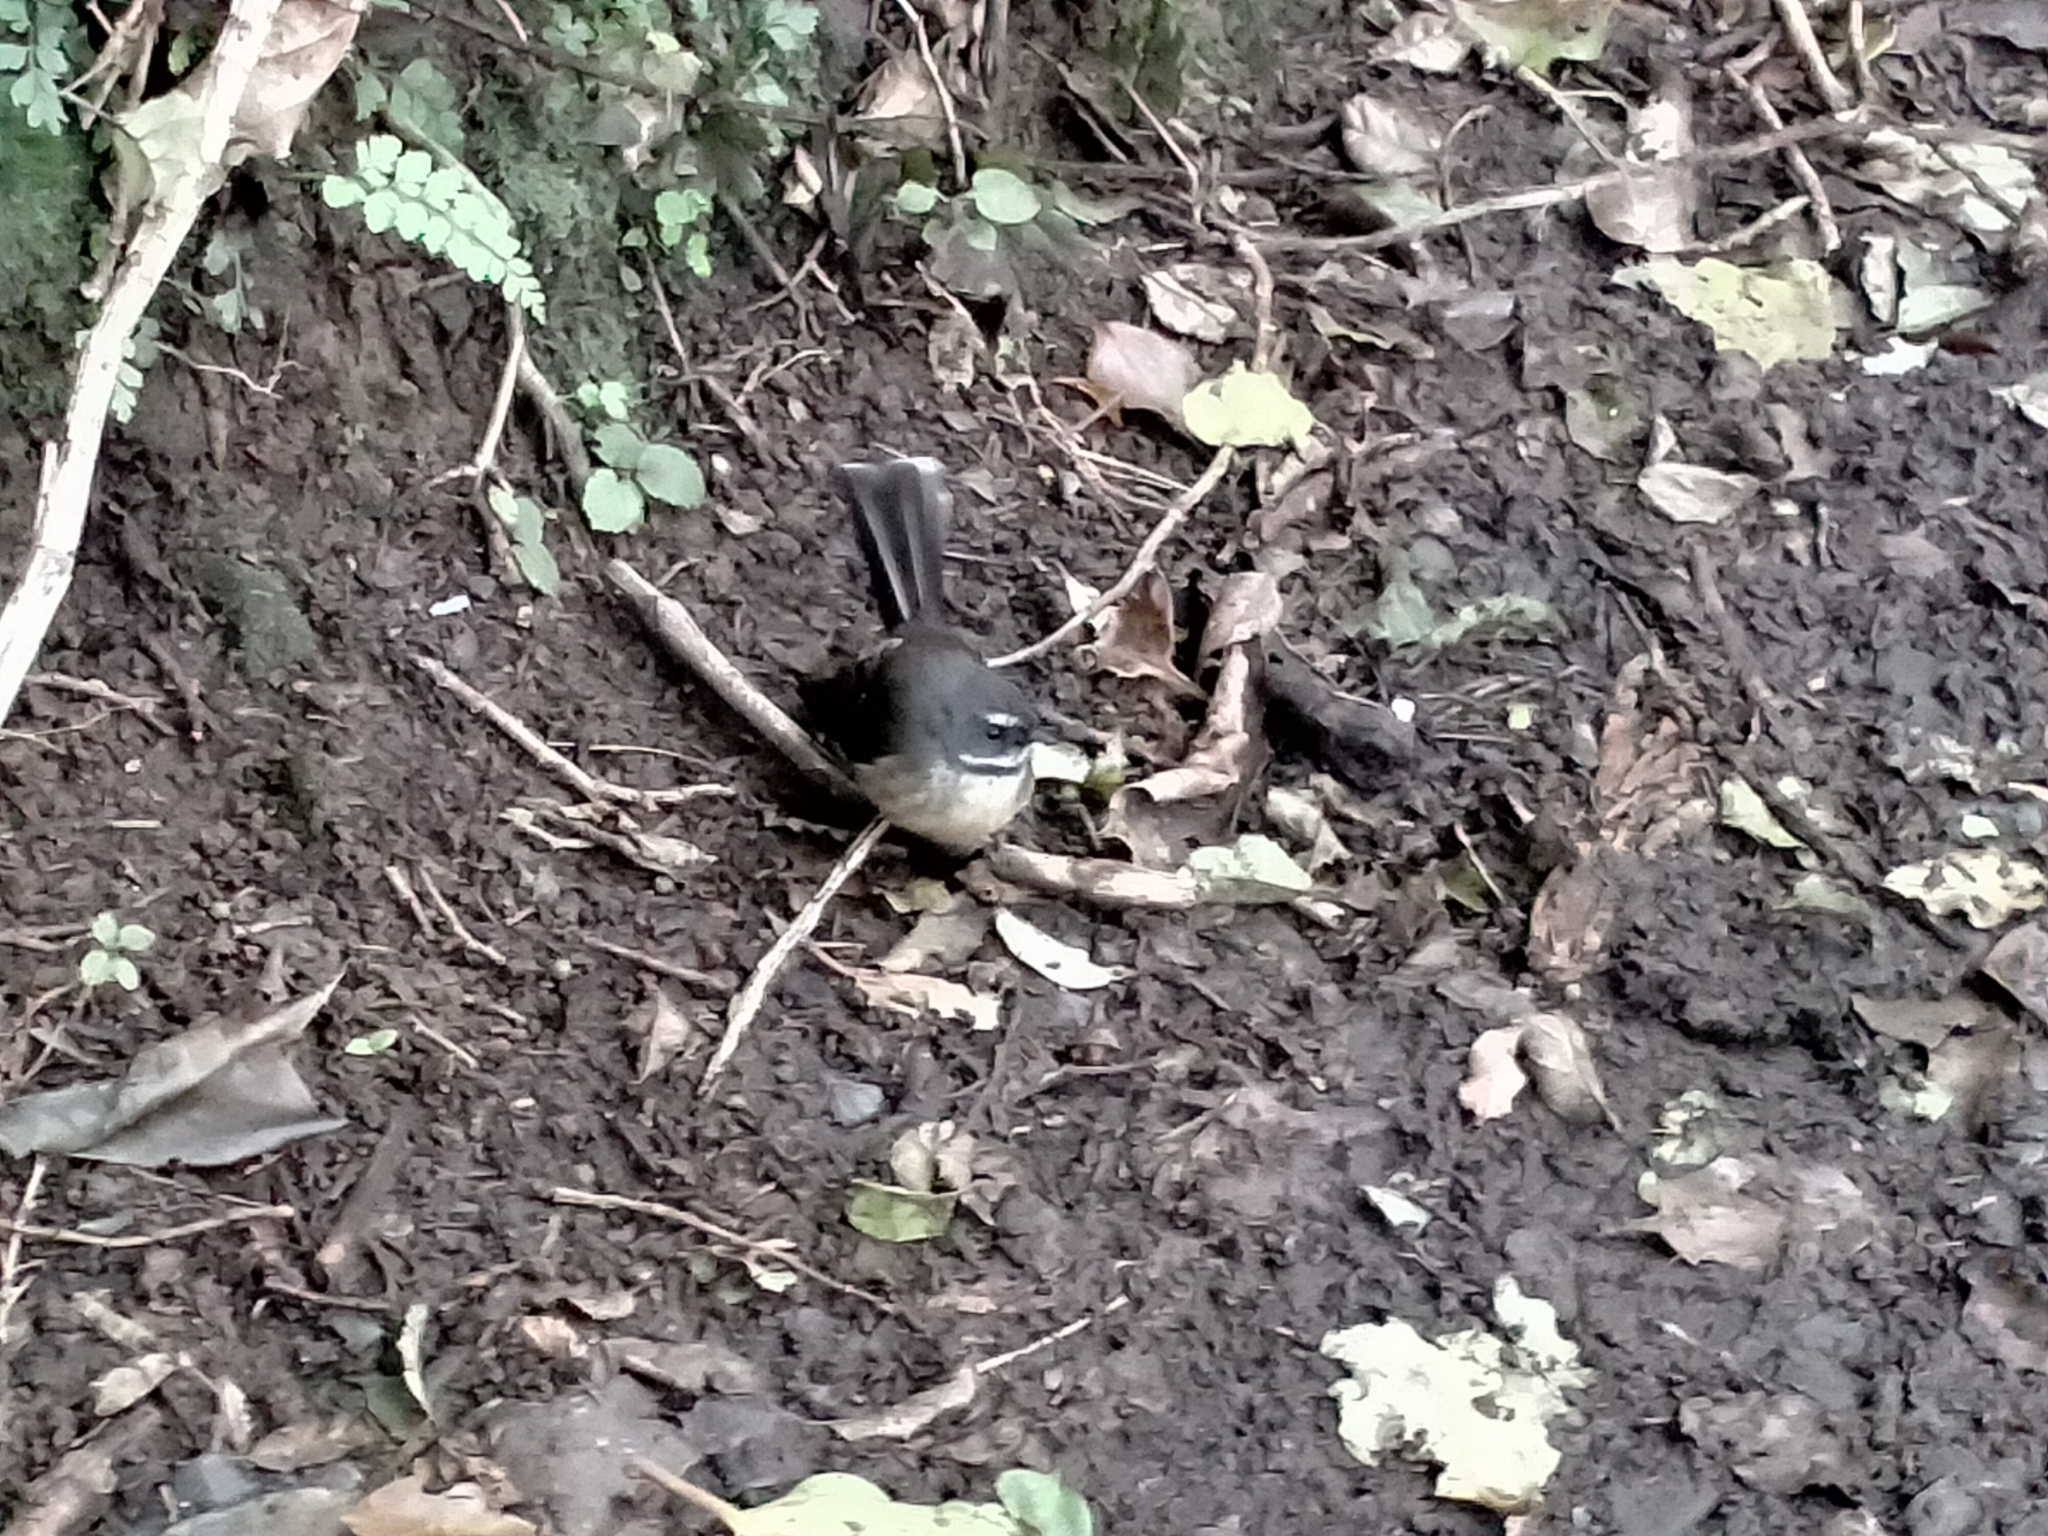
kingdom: Animalia
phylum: Chordata
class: Aves
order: Passeriformes
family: Rhipiduridae
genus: Rhipidura
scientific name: Rhipidura fuliginosa
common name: New zealand fantail
